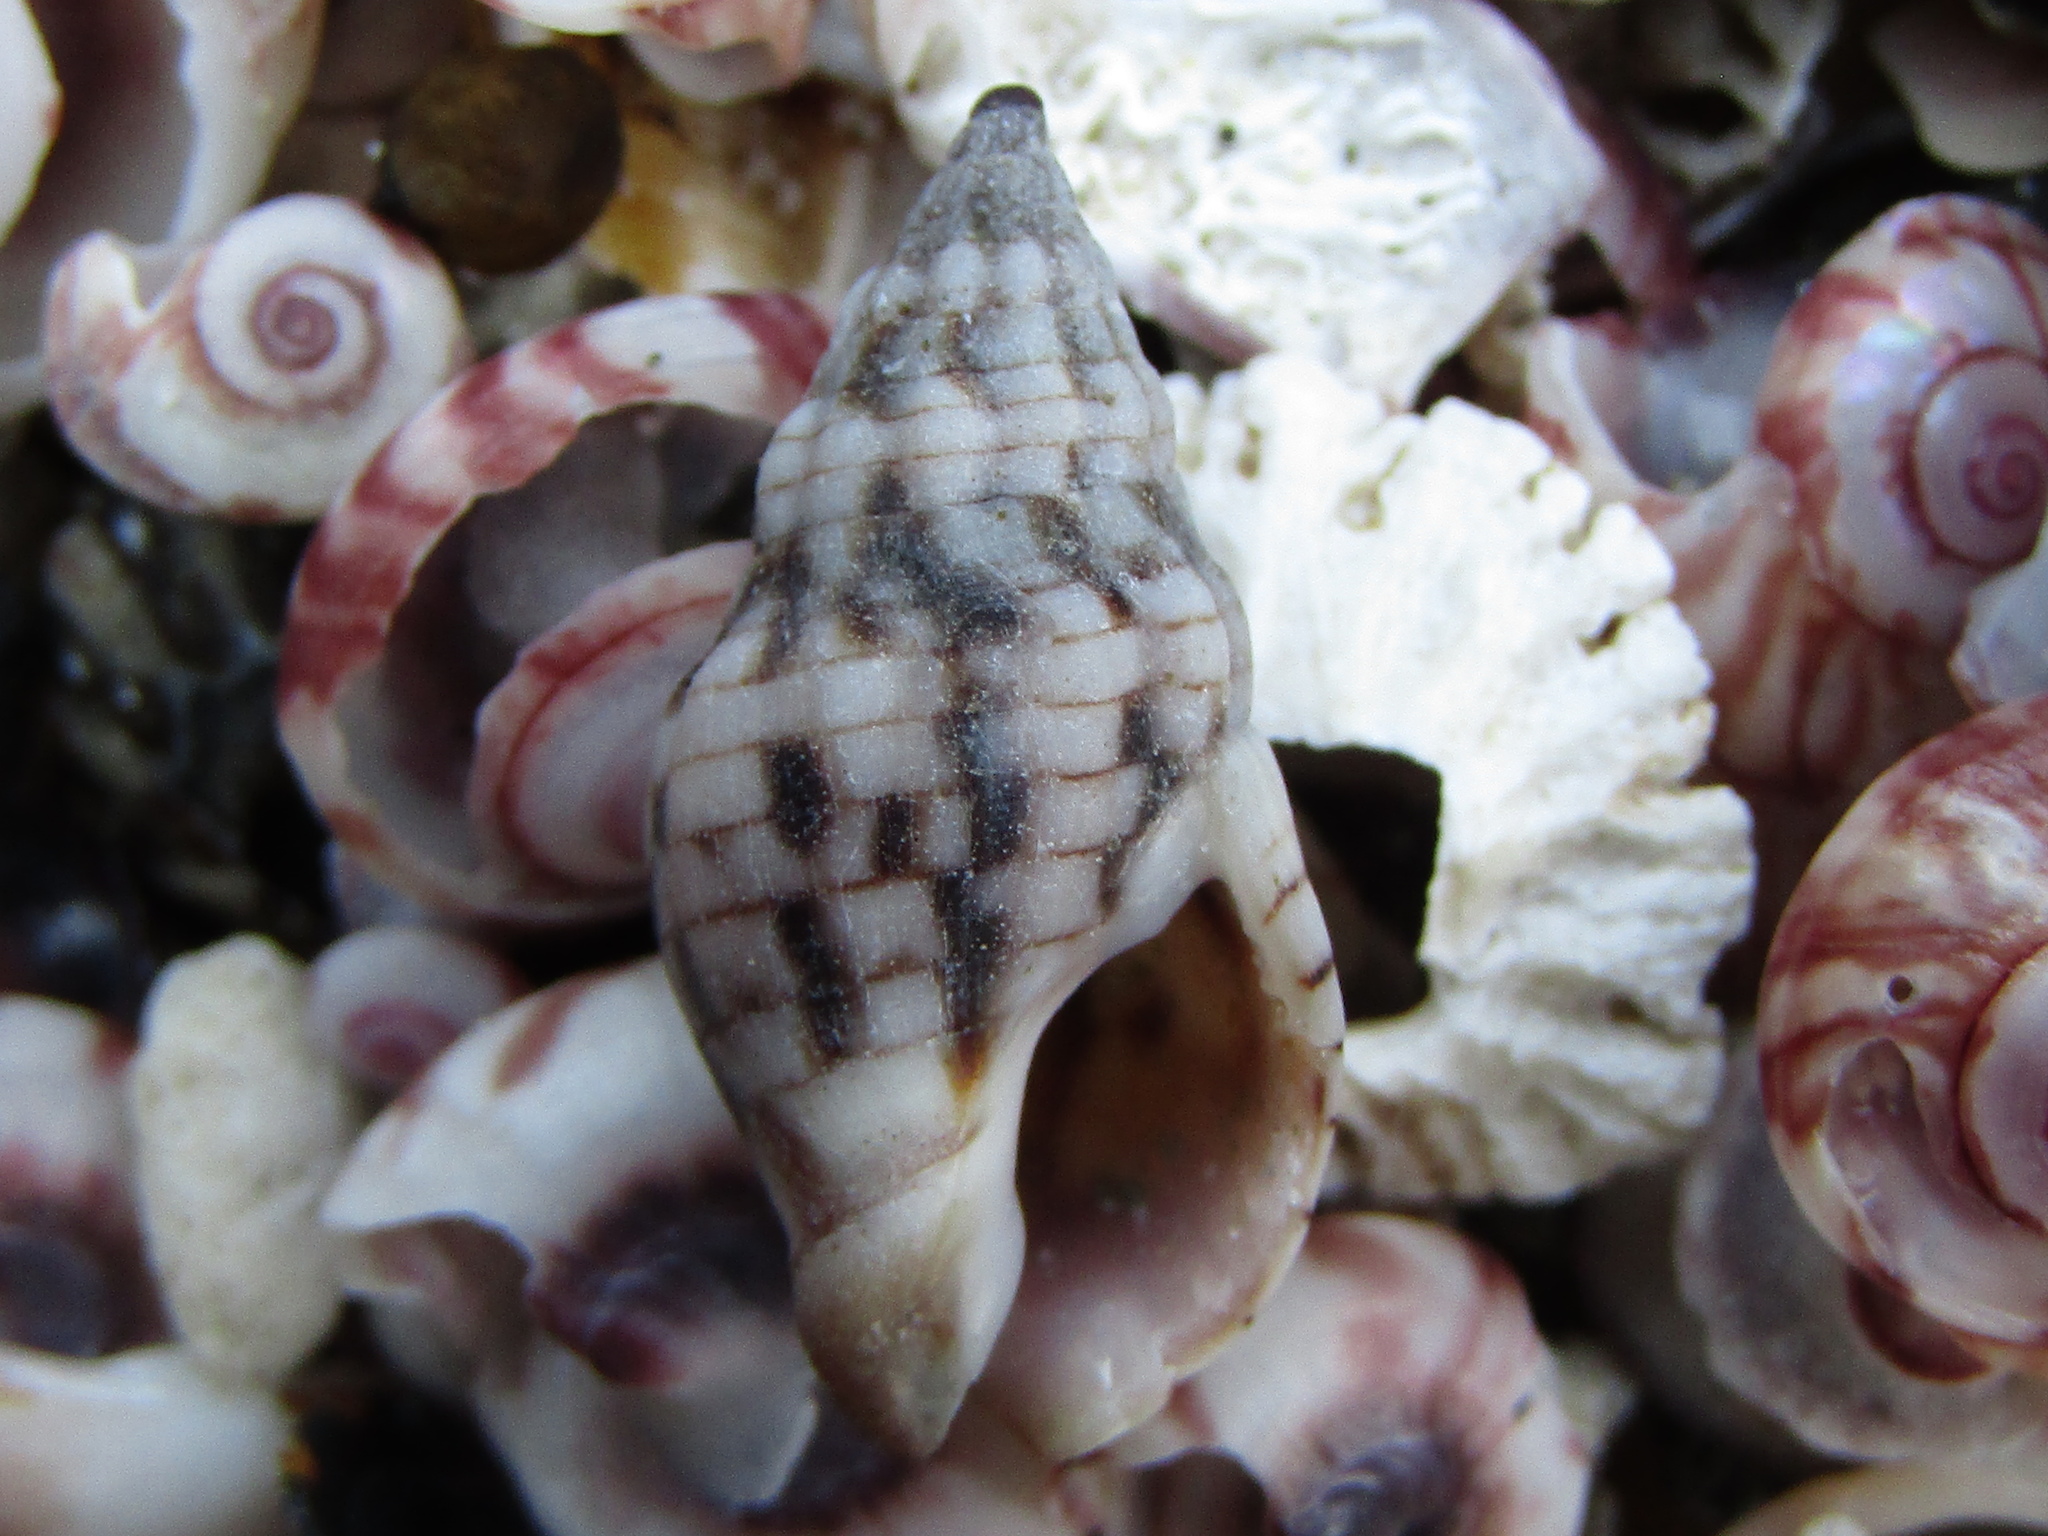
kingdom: Animalia
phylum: Mollusca
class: Gastropoda
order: Neogastropoda
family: Cominellidae
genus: Cominella
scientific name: Cominella quoyana
